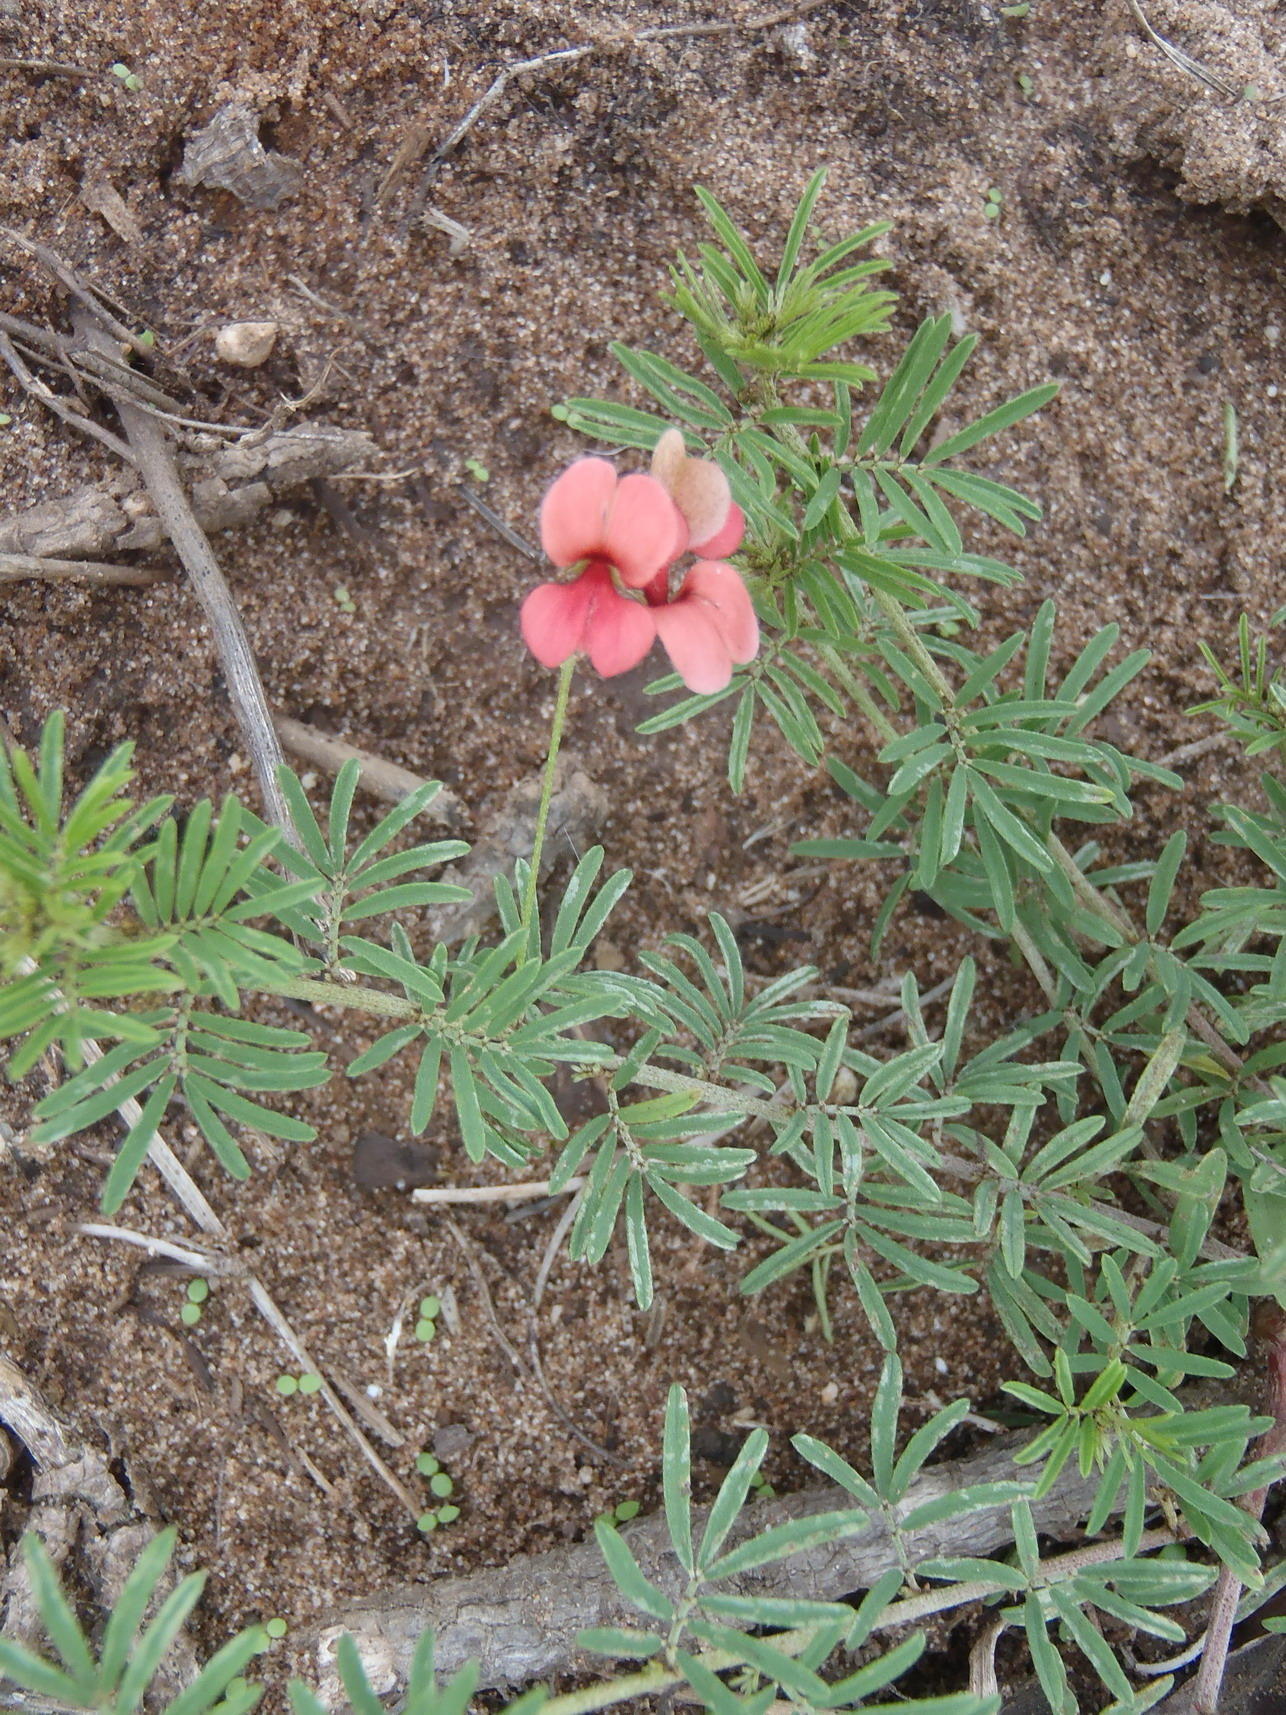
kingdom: Plantae
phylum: Tracheophyta
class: Magnoliopsida
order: Fabales
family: Fabaceae
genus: Indigofera
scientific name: Indigofera verrucosa
